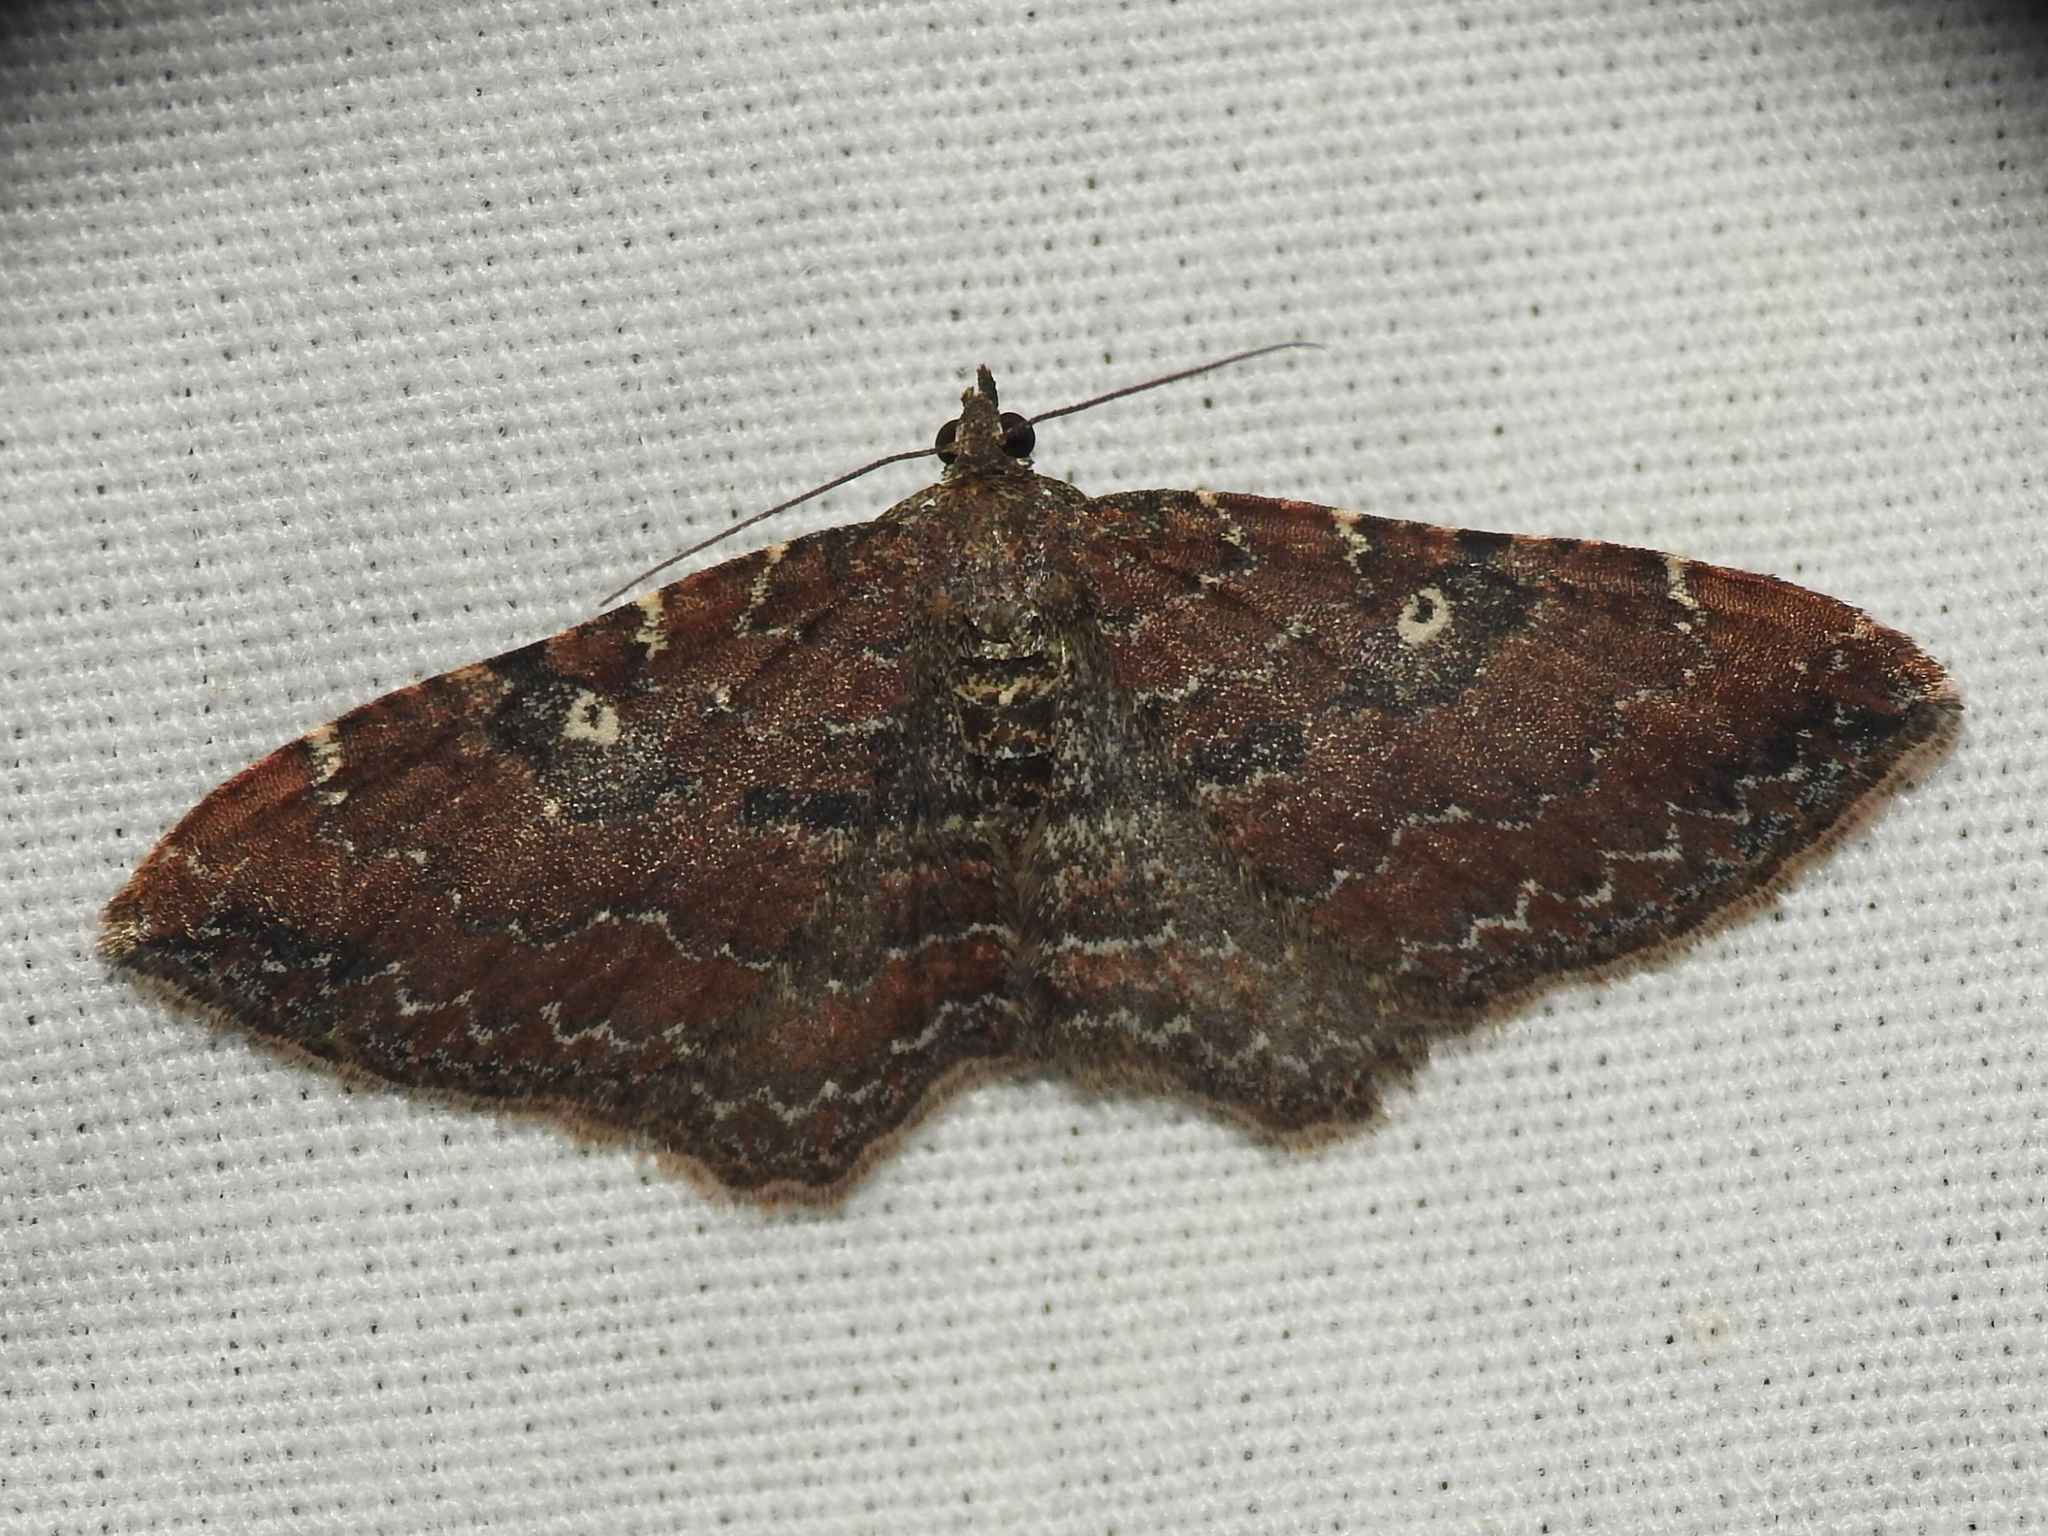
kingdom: Animalia
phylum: Arthropoda
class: Insecta
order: Lepidoptera
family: Geometridae
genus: Orthonama
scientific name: Orthonama obstipata
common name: The gem
